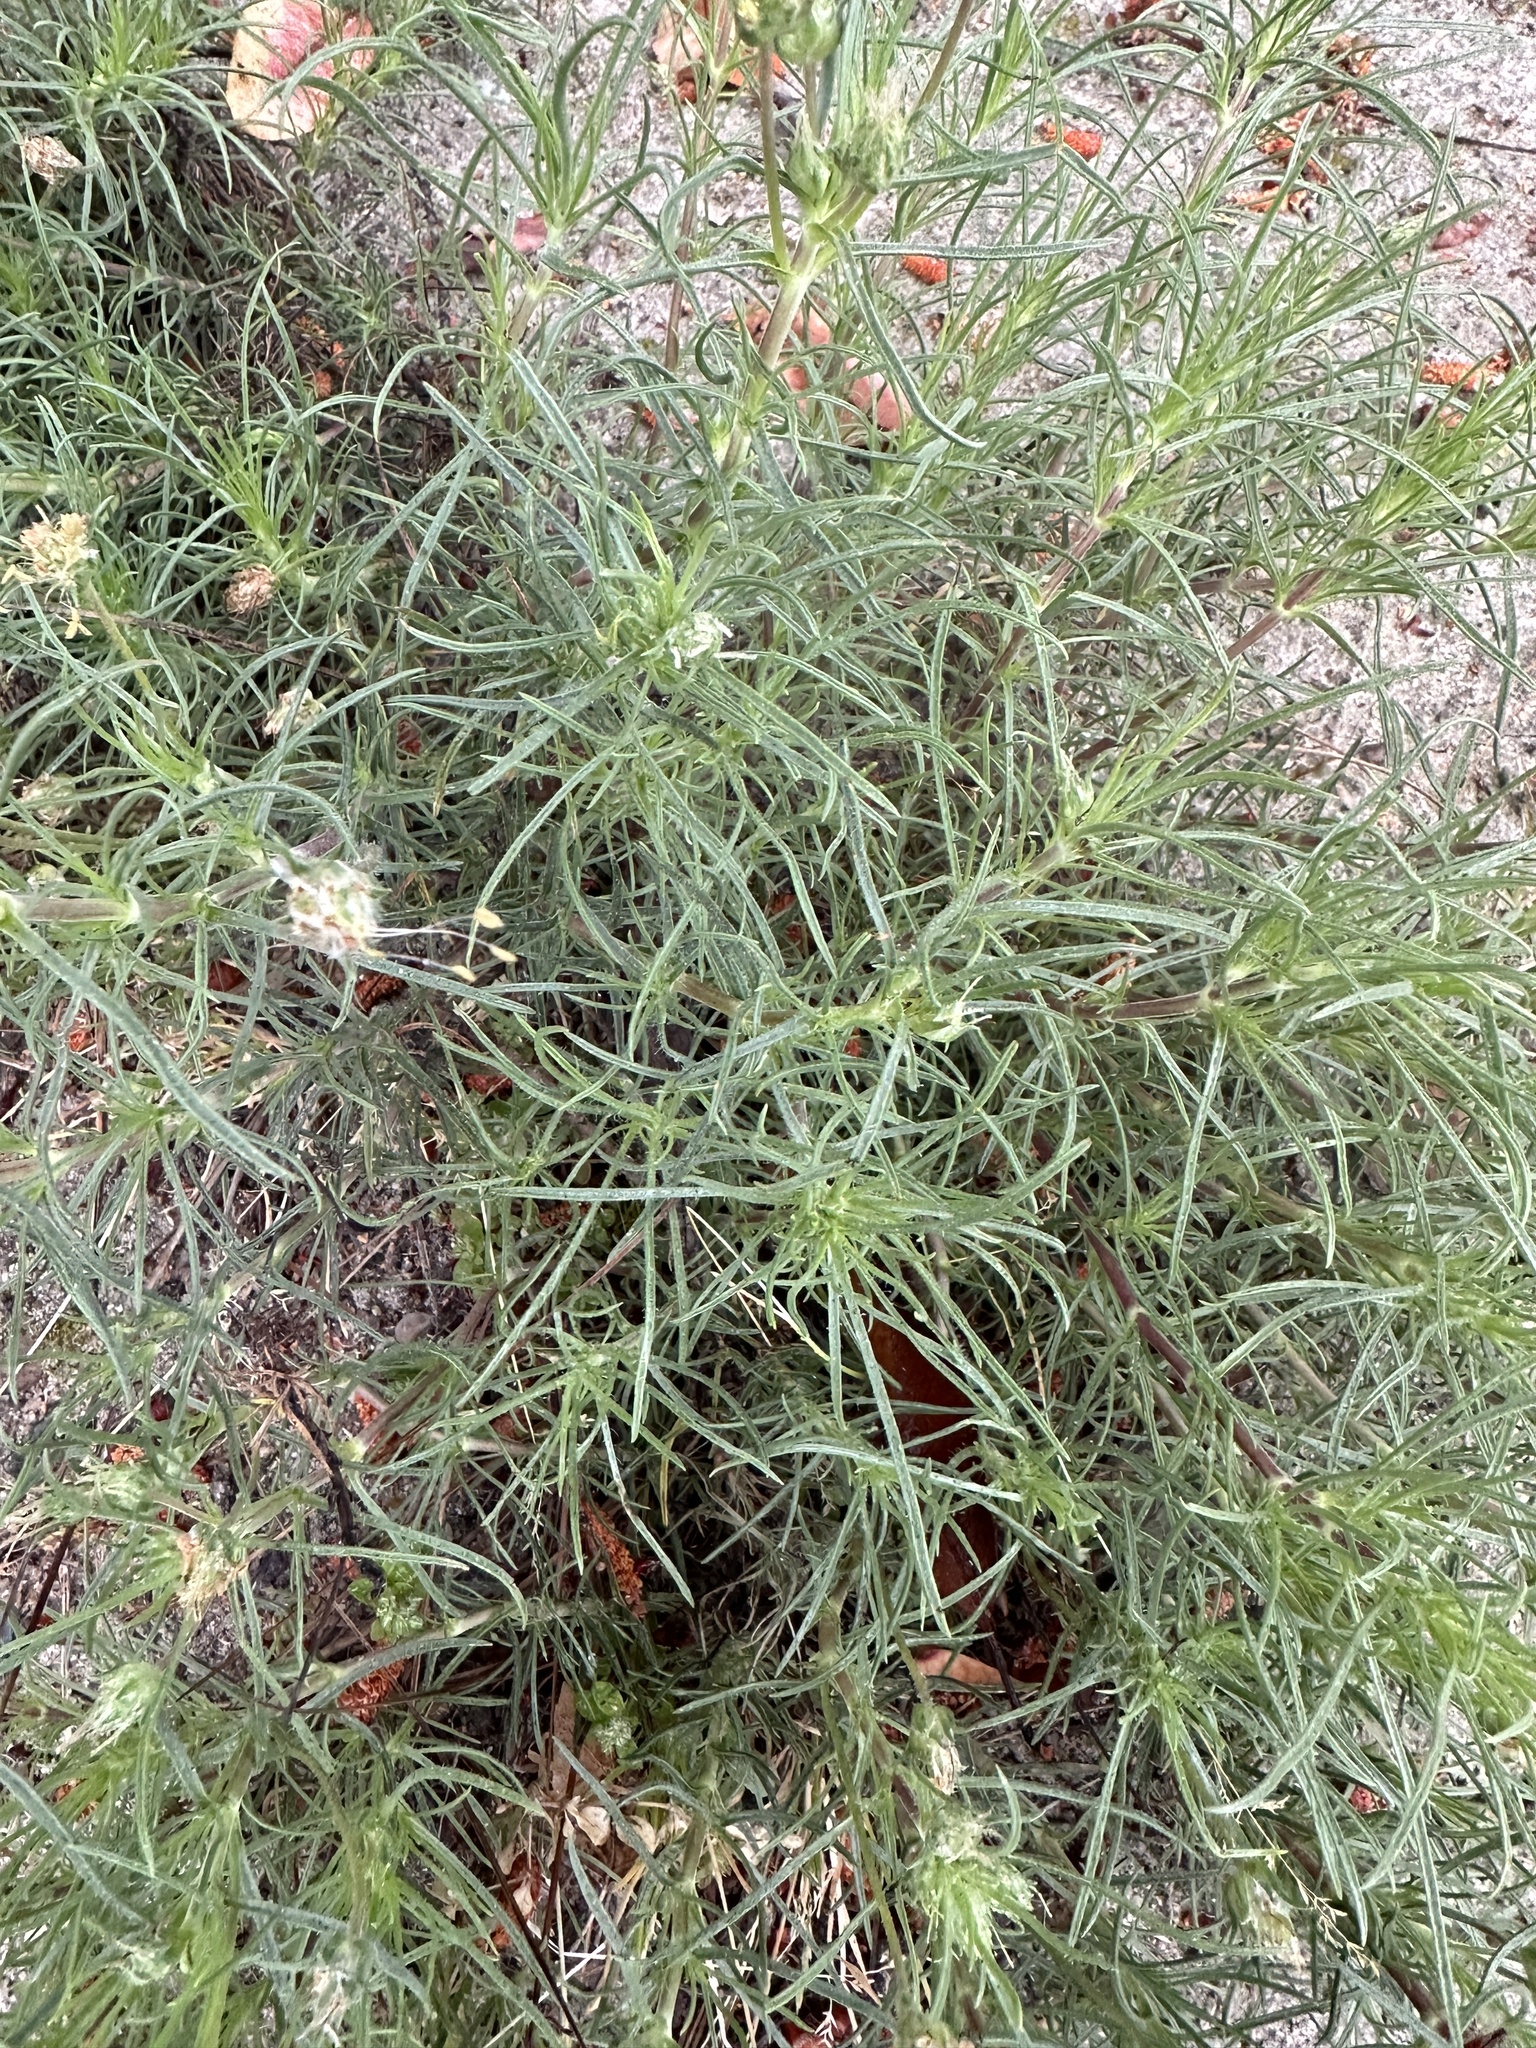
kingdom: Plantae
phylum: Tracheophyta
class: Magnoliopsida
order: Lamiales
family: Plantaginaceae
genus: Plantago
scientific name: Plantago arenaria
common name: Branched plantain
